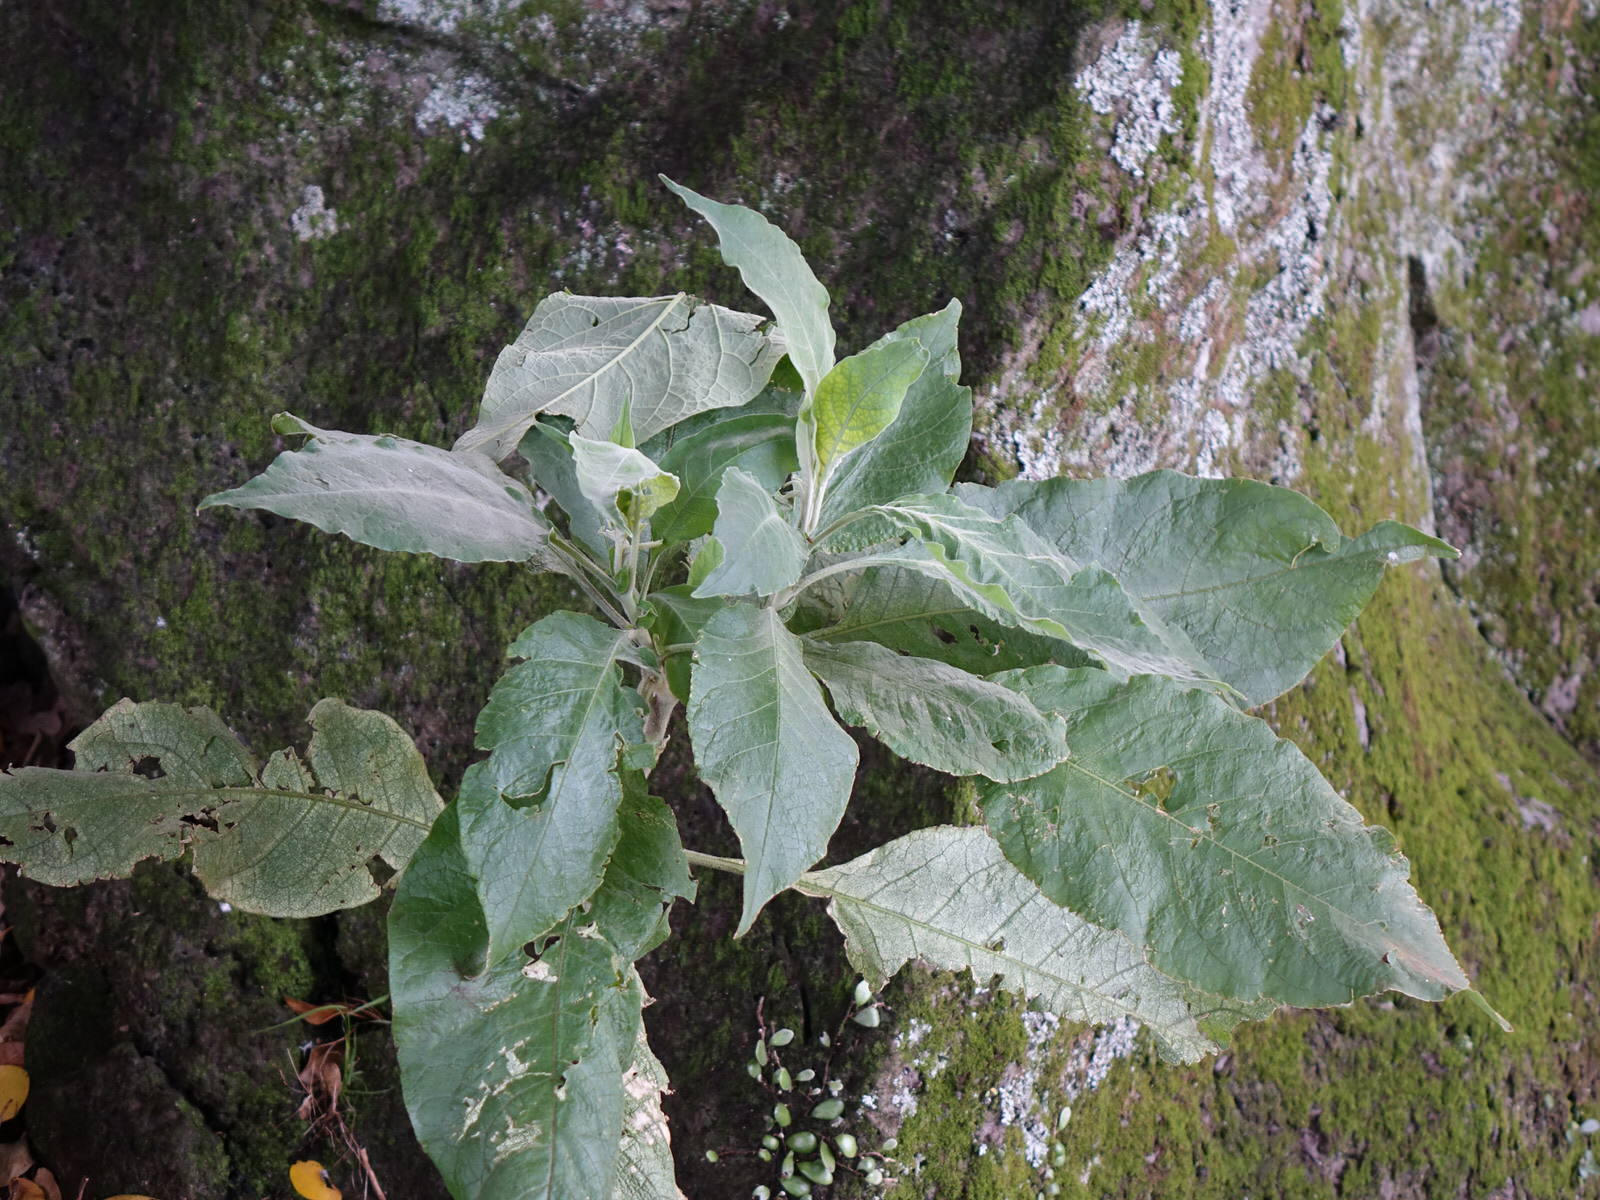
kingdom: Plantae
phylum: Tracheophyta
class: Magnoliopsida
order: Solanales
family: Solanaceae
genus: Solanum
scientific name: Solanum mauritianum
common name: Earleaf nightshade
